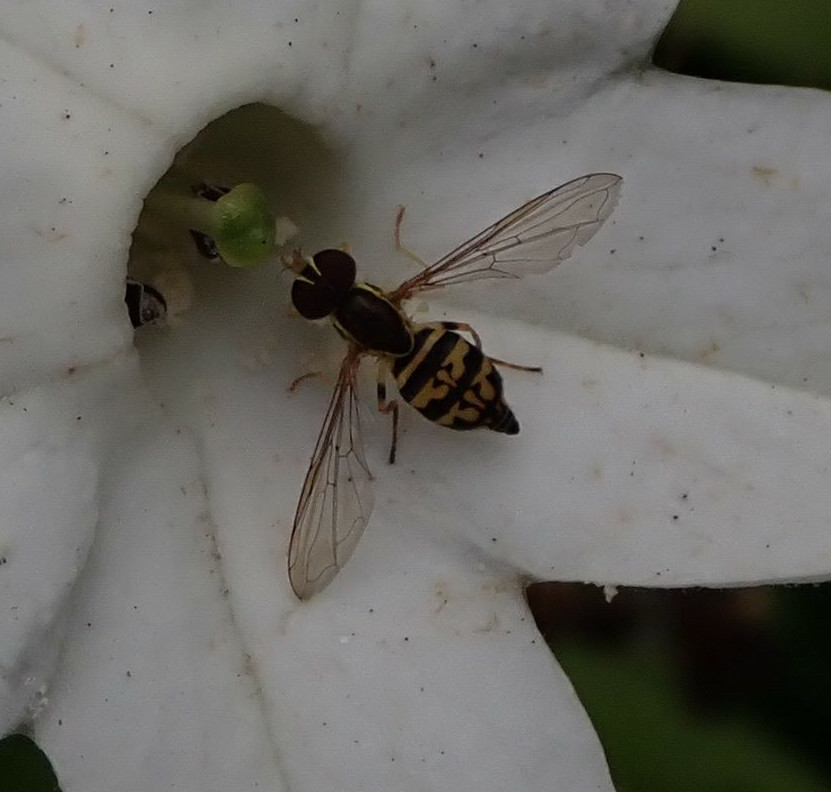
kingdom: Animalia
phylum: Arthropoda
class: Insecta
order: Diptera
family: Syrphidae
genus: Toxomerus
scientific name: Toxomerus geminatus
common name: Eastern calligrapher
